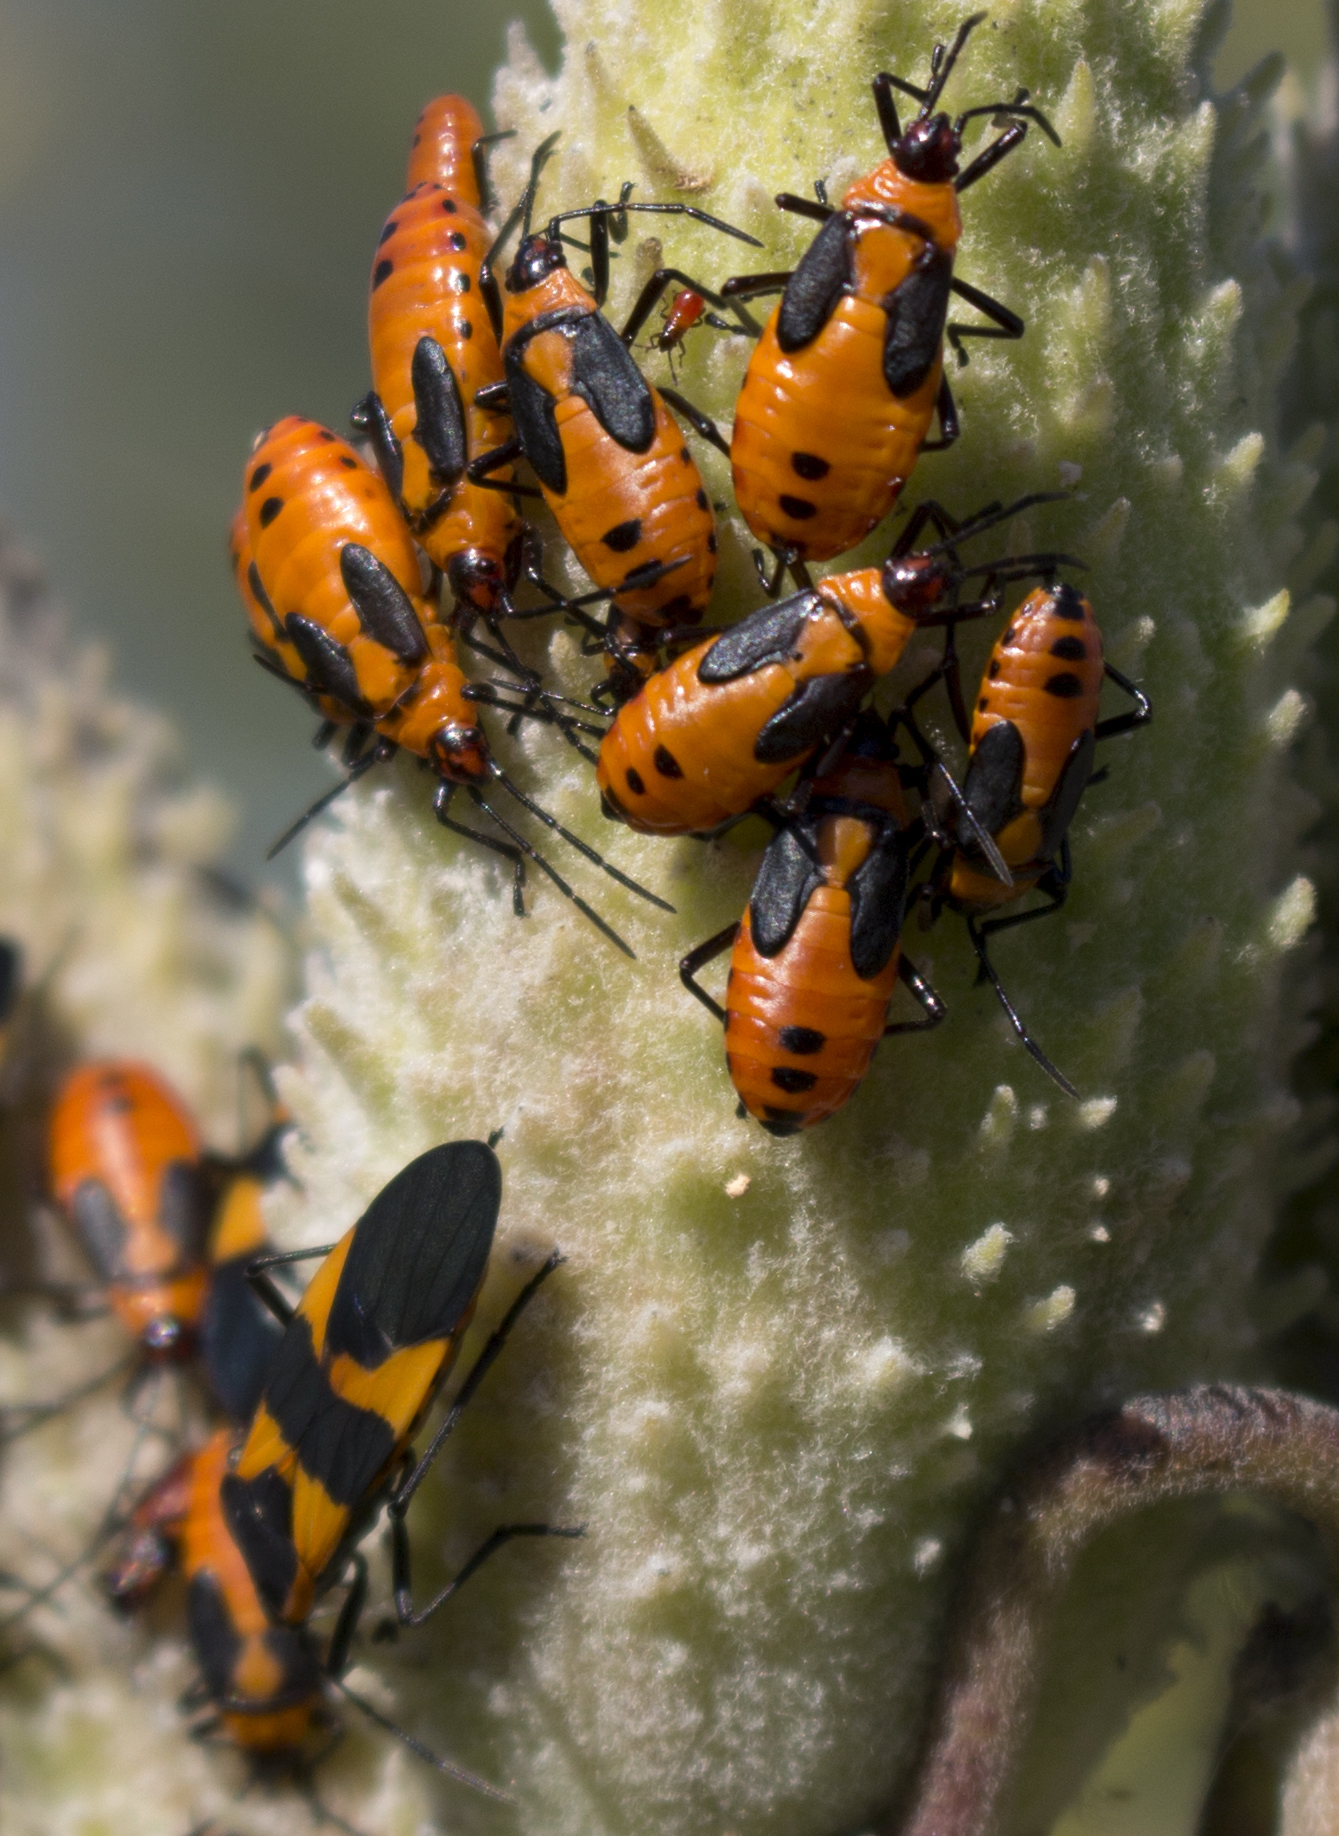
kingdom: Animalia
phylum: Arthropoda
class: Insecta
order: Hemiptera
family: Lygaeidae
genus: Oncopeltus
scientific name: Oncopeltus fasciatus
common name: Large milkweed bug
